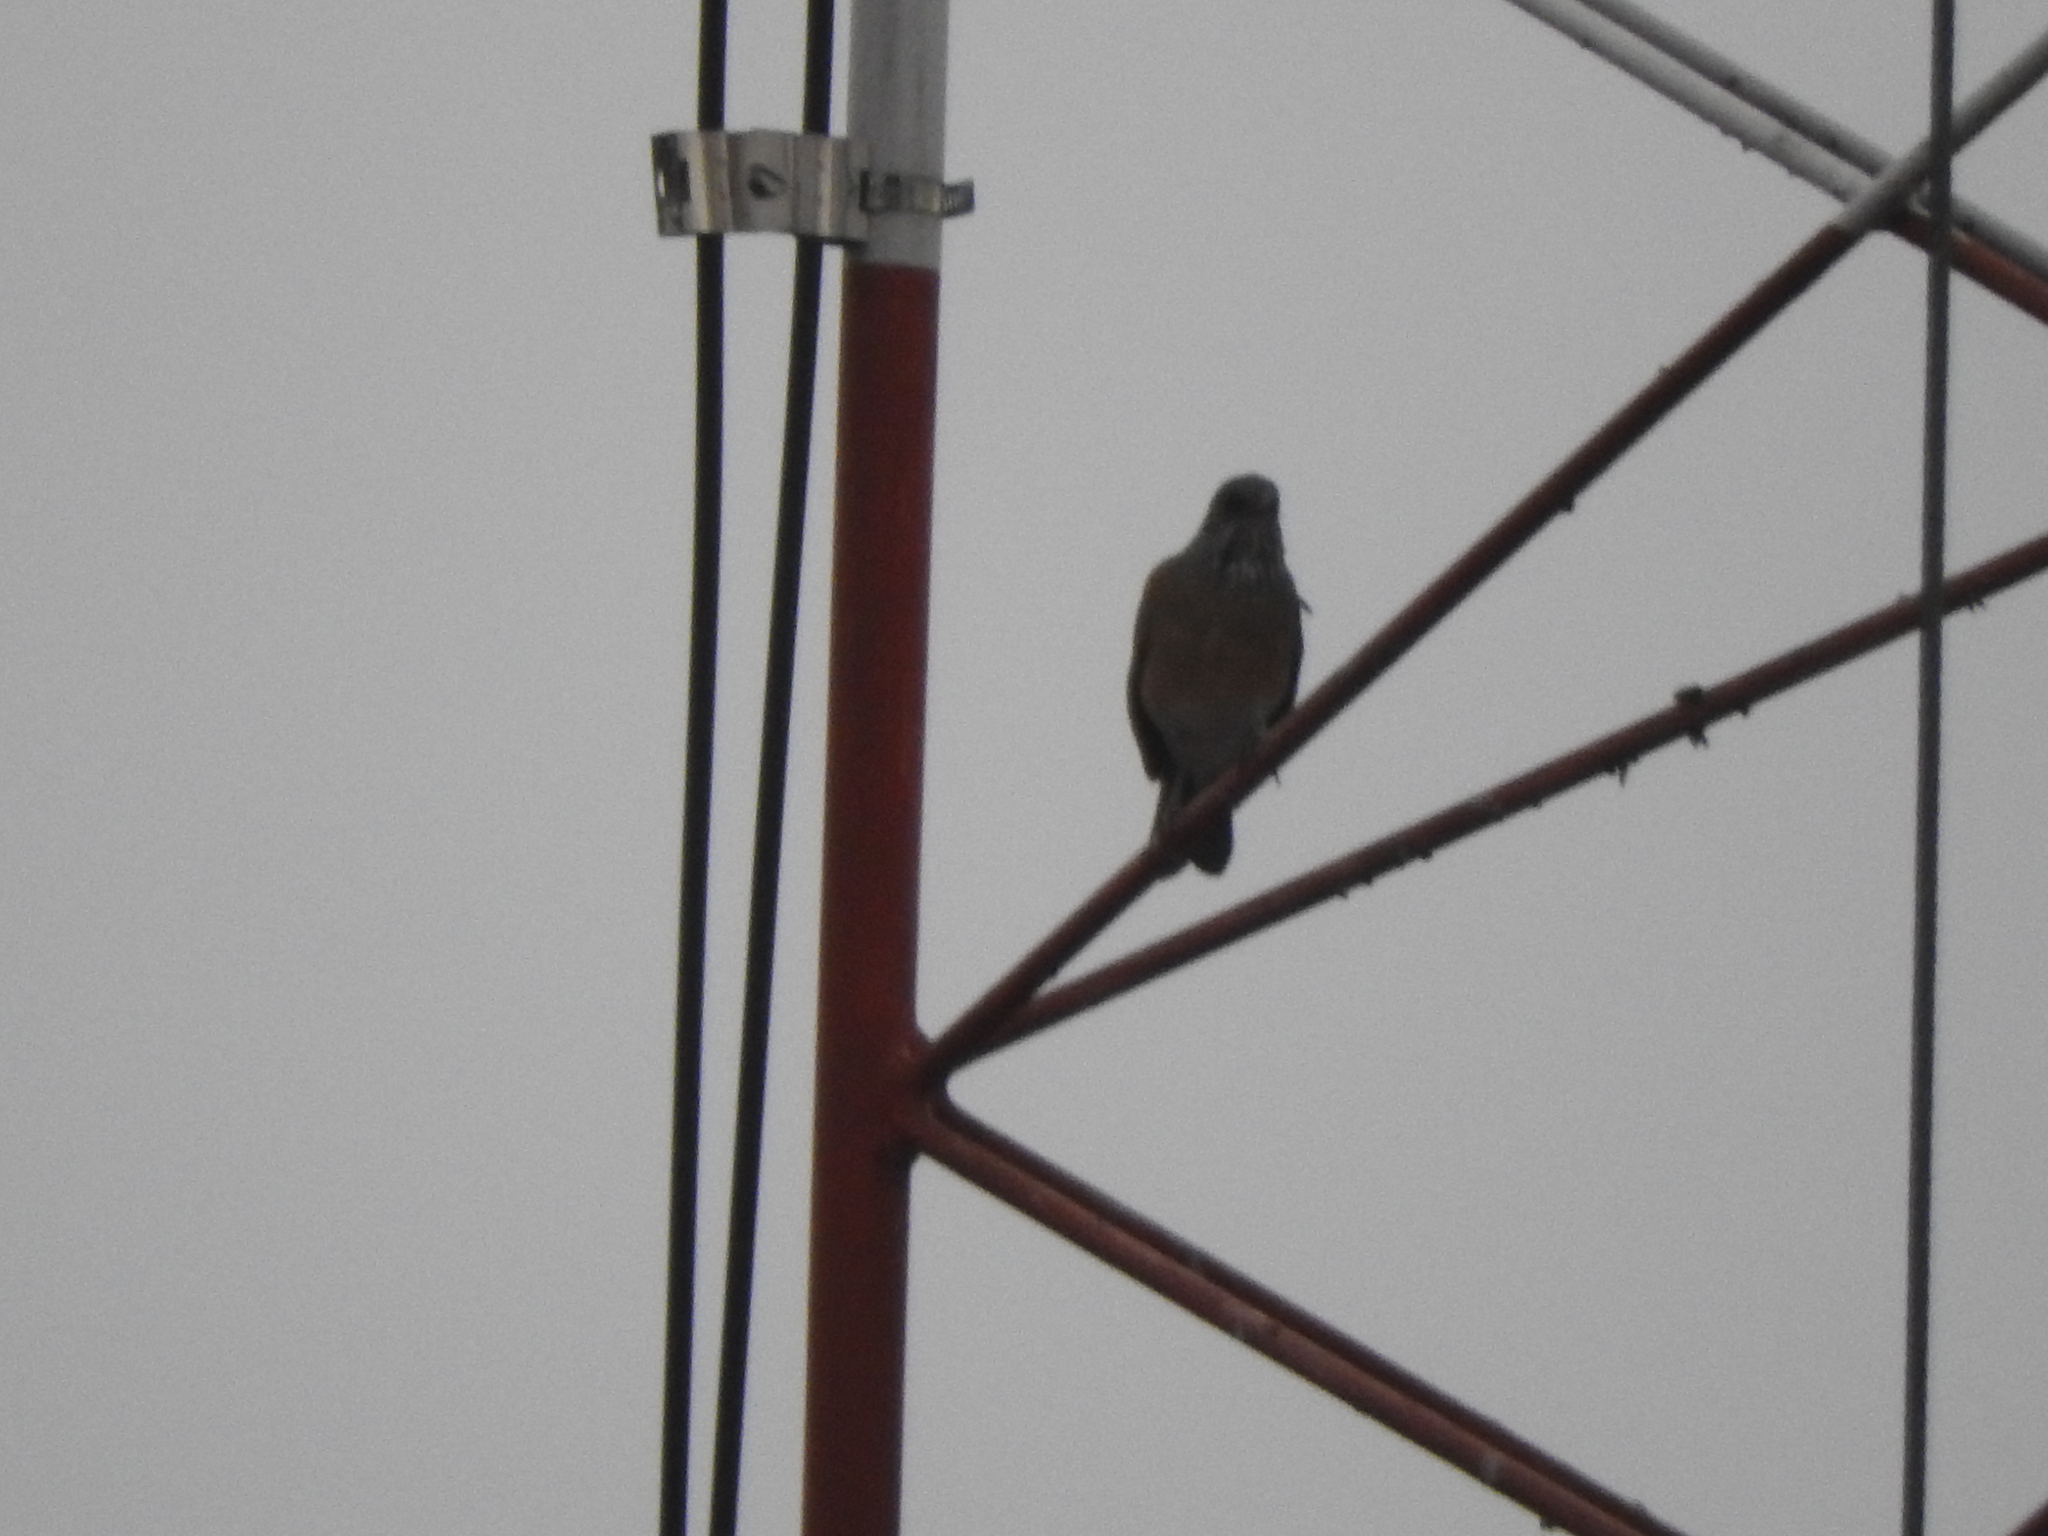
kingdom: Animalia
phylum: Chordata
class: Aves
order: Passeriformes
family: Turdidae
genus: Turdus
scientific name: Turdus rufopalliatus
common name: Rufous-backed robin
